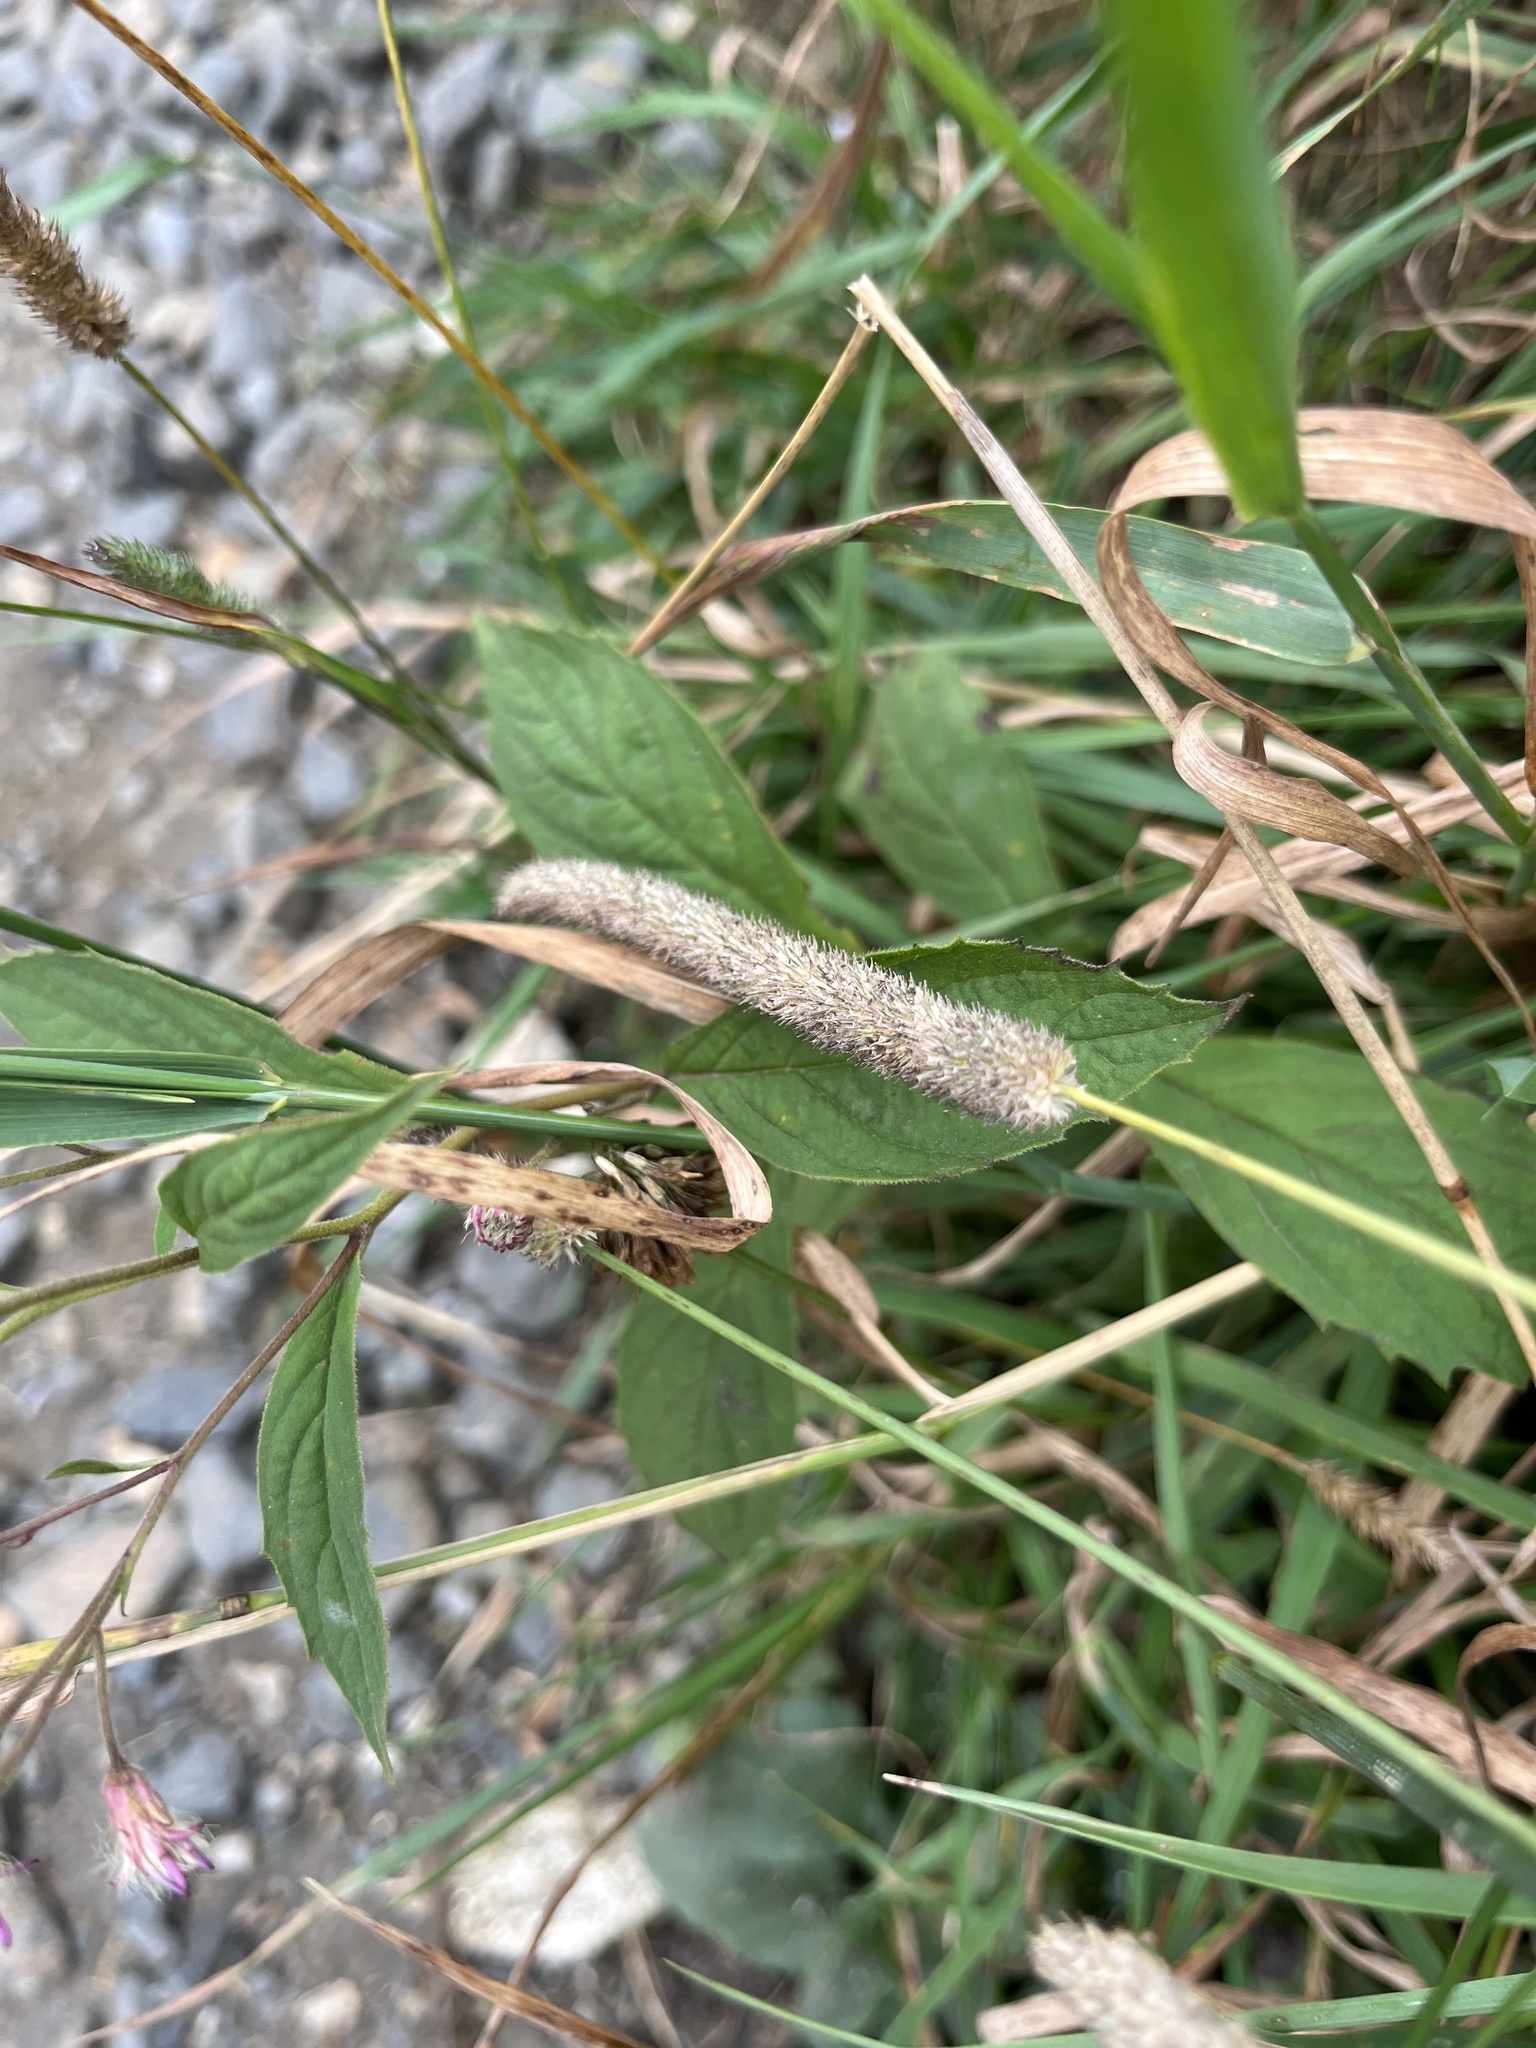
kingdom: Plantae
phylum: Tracheophyta
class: Liliopsida
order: Poales
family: Poaceae
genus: Phleum
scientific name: Phleum pratense
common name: Timothy grass
